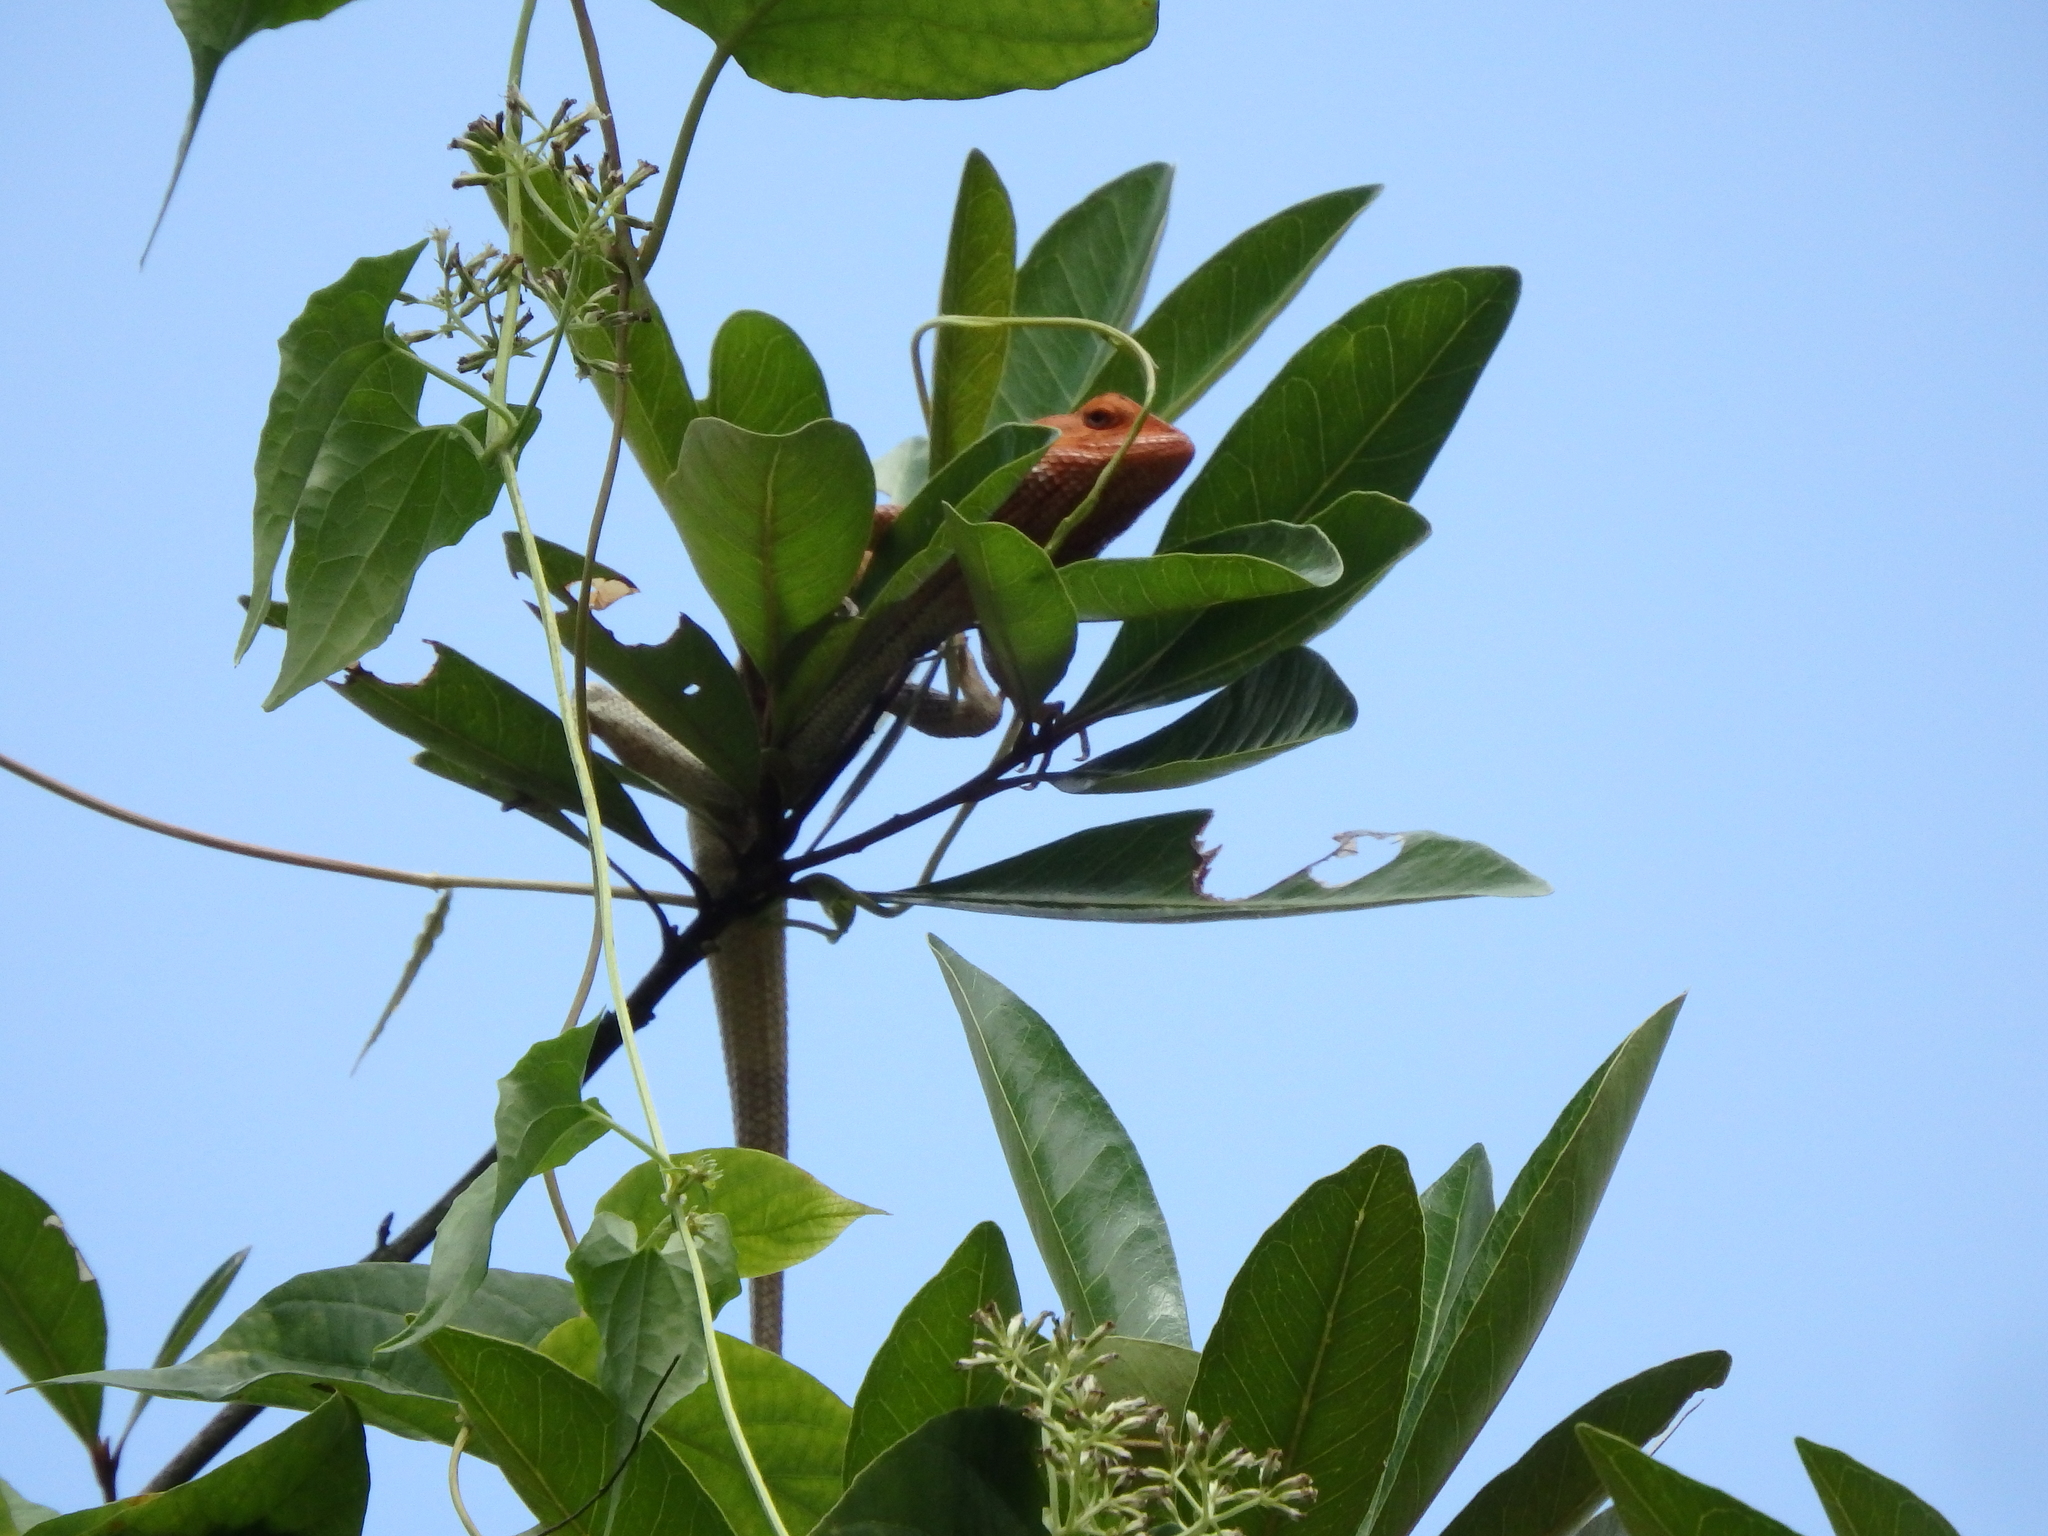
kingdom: Animalia
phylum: Chordata
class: Squamata
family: Agamidae
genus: Calotes
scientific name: Calotes versicolor
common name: Oriental garden lizard
